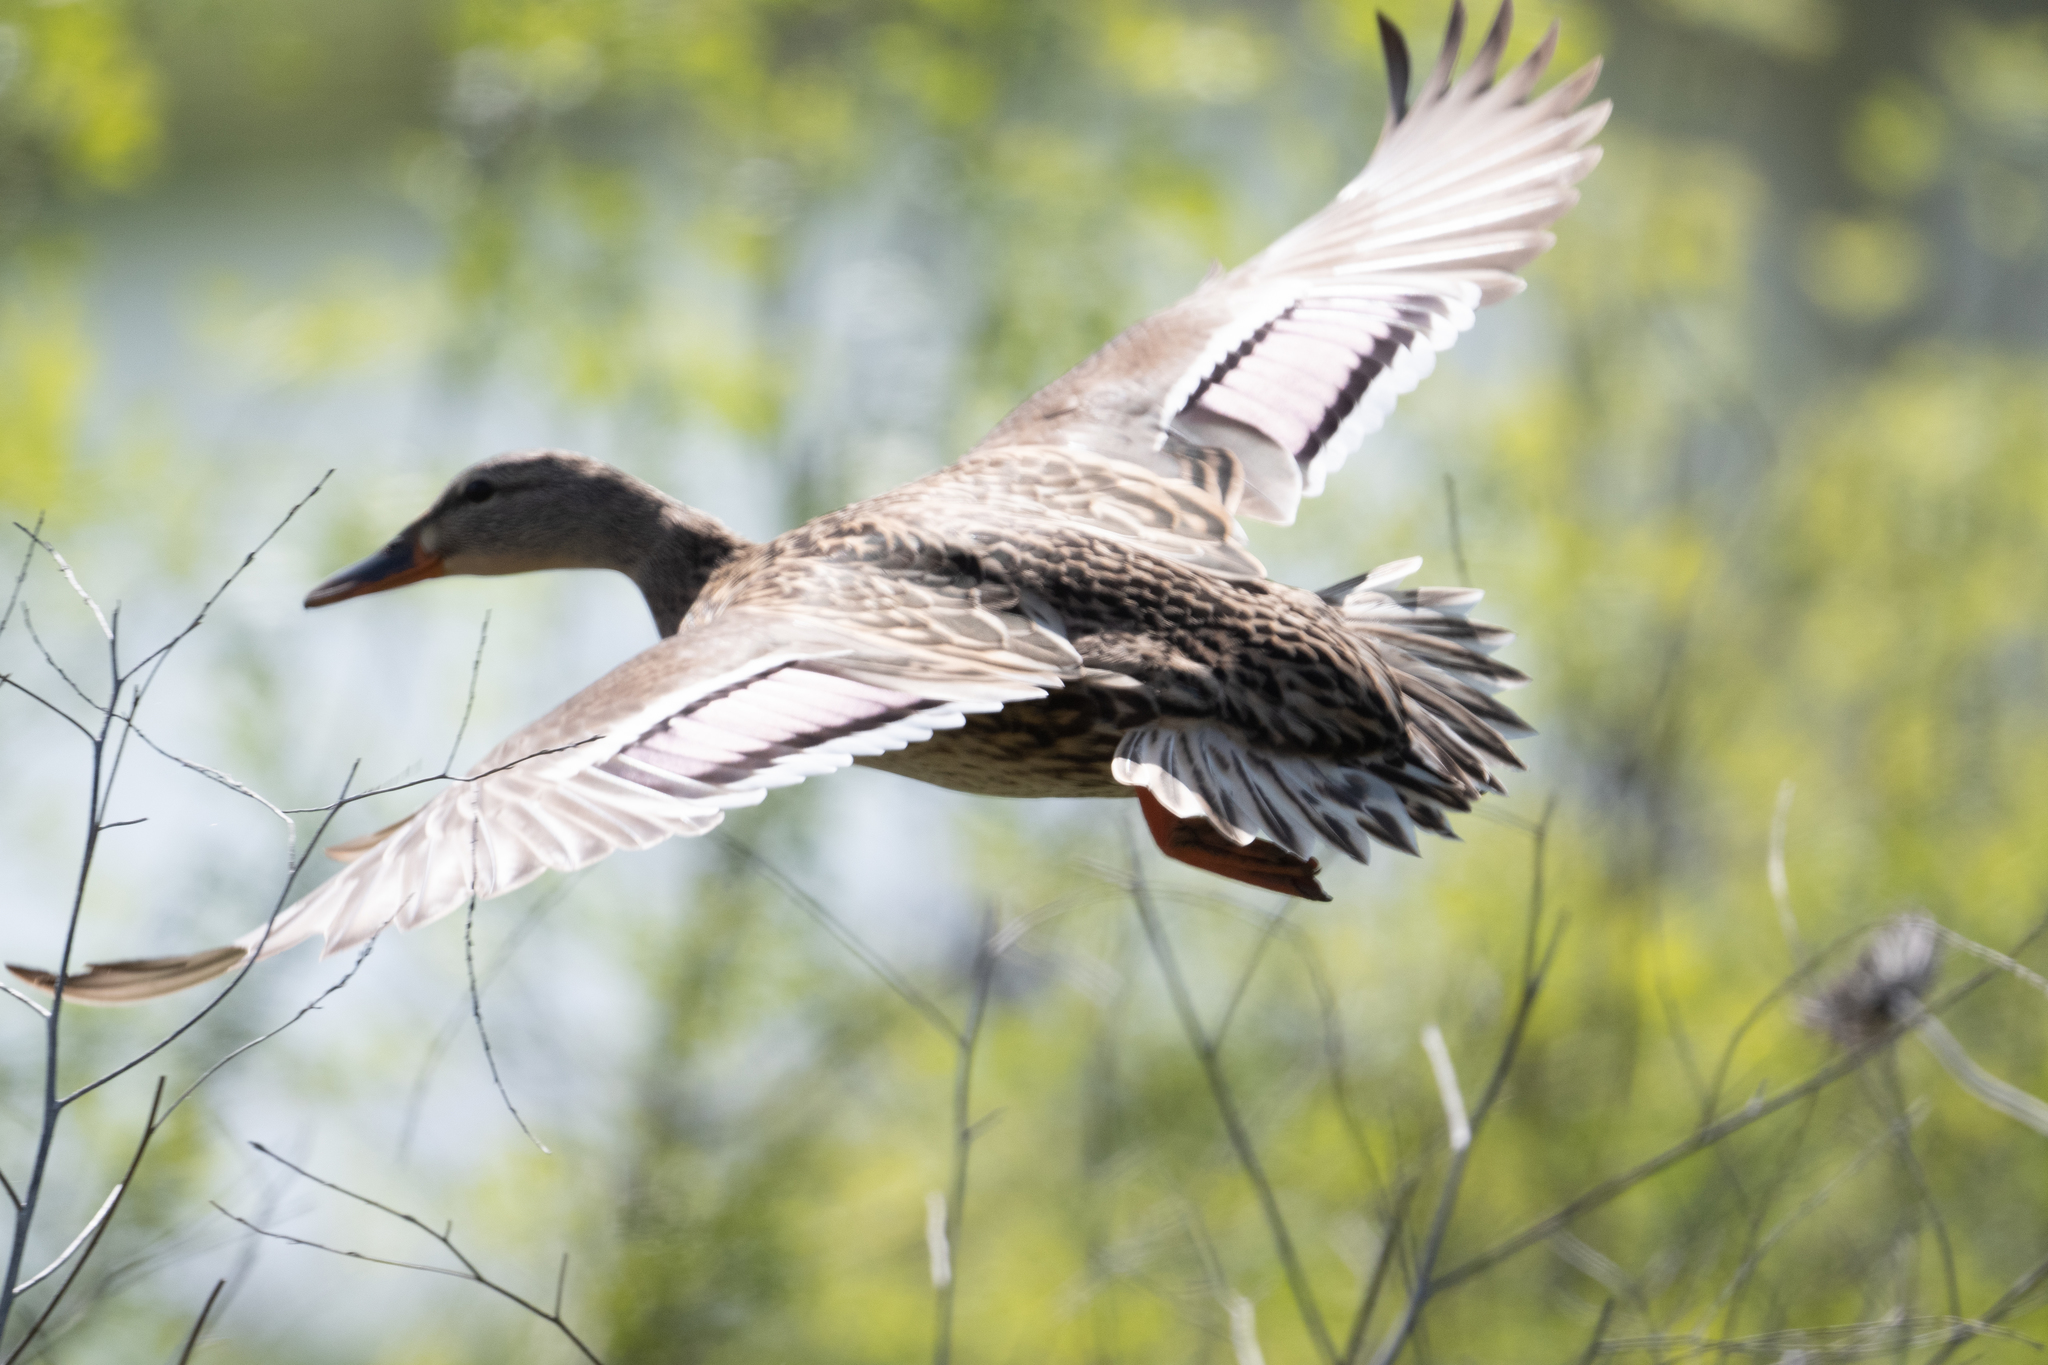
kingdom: Animalia
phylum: Chordata
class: Aves
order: Anseriformes
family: Anatidae
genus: Anas
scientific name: Anas platyrhynchos
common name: Mallard
